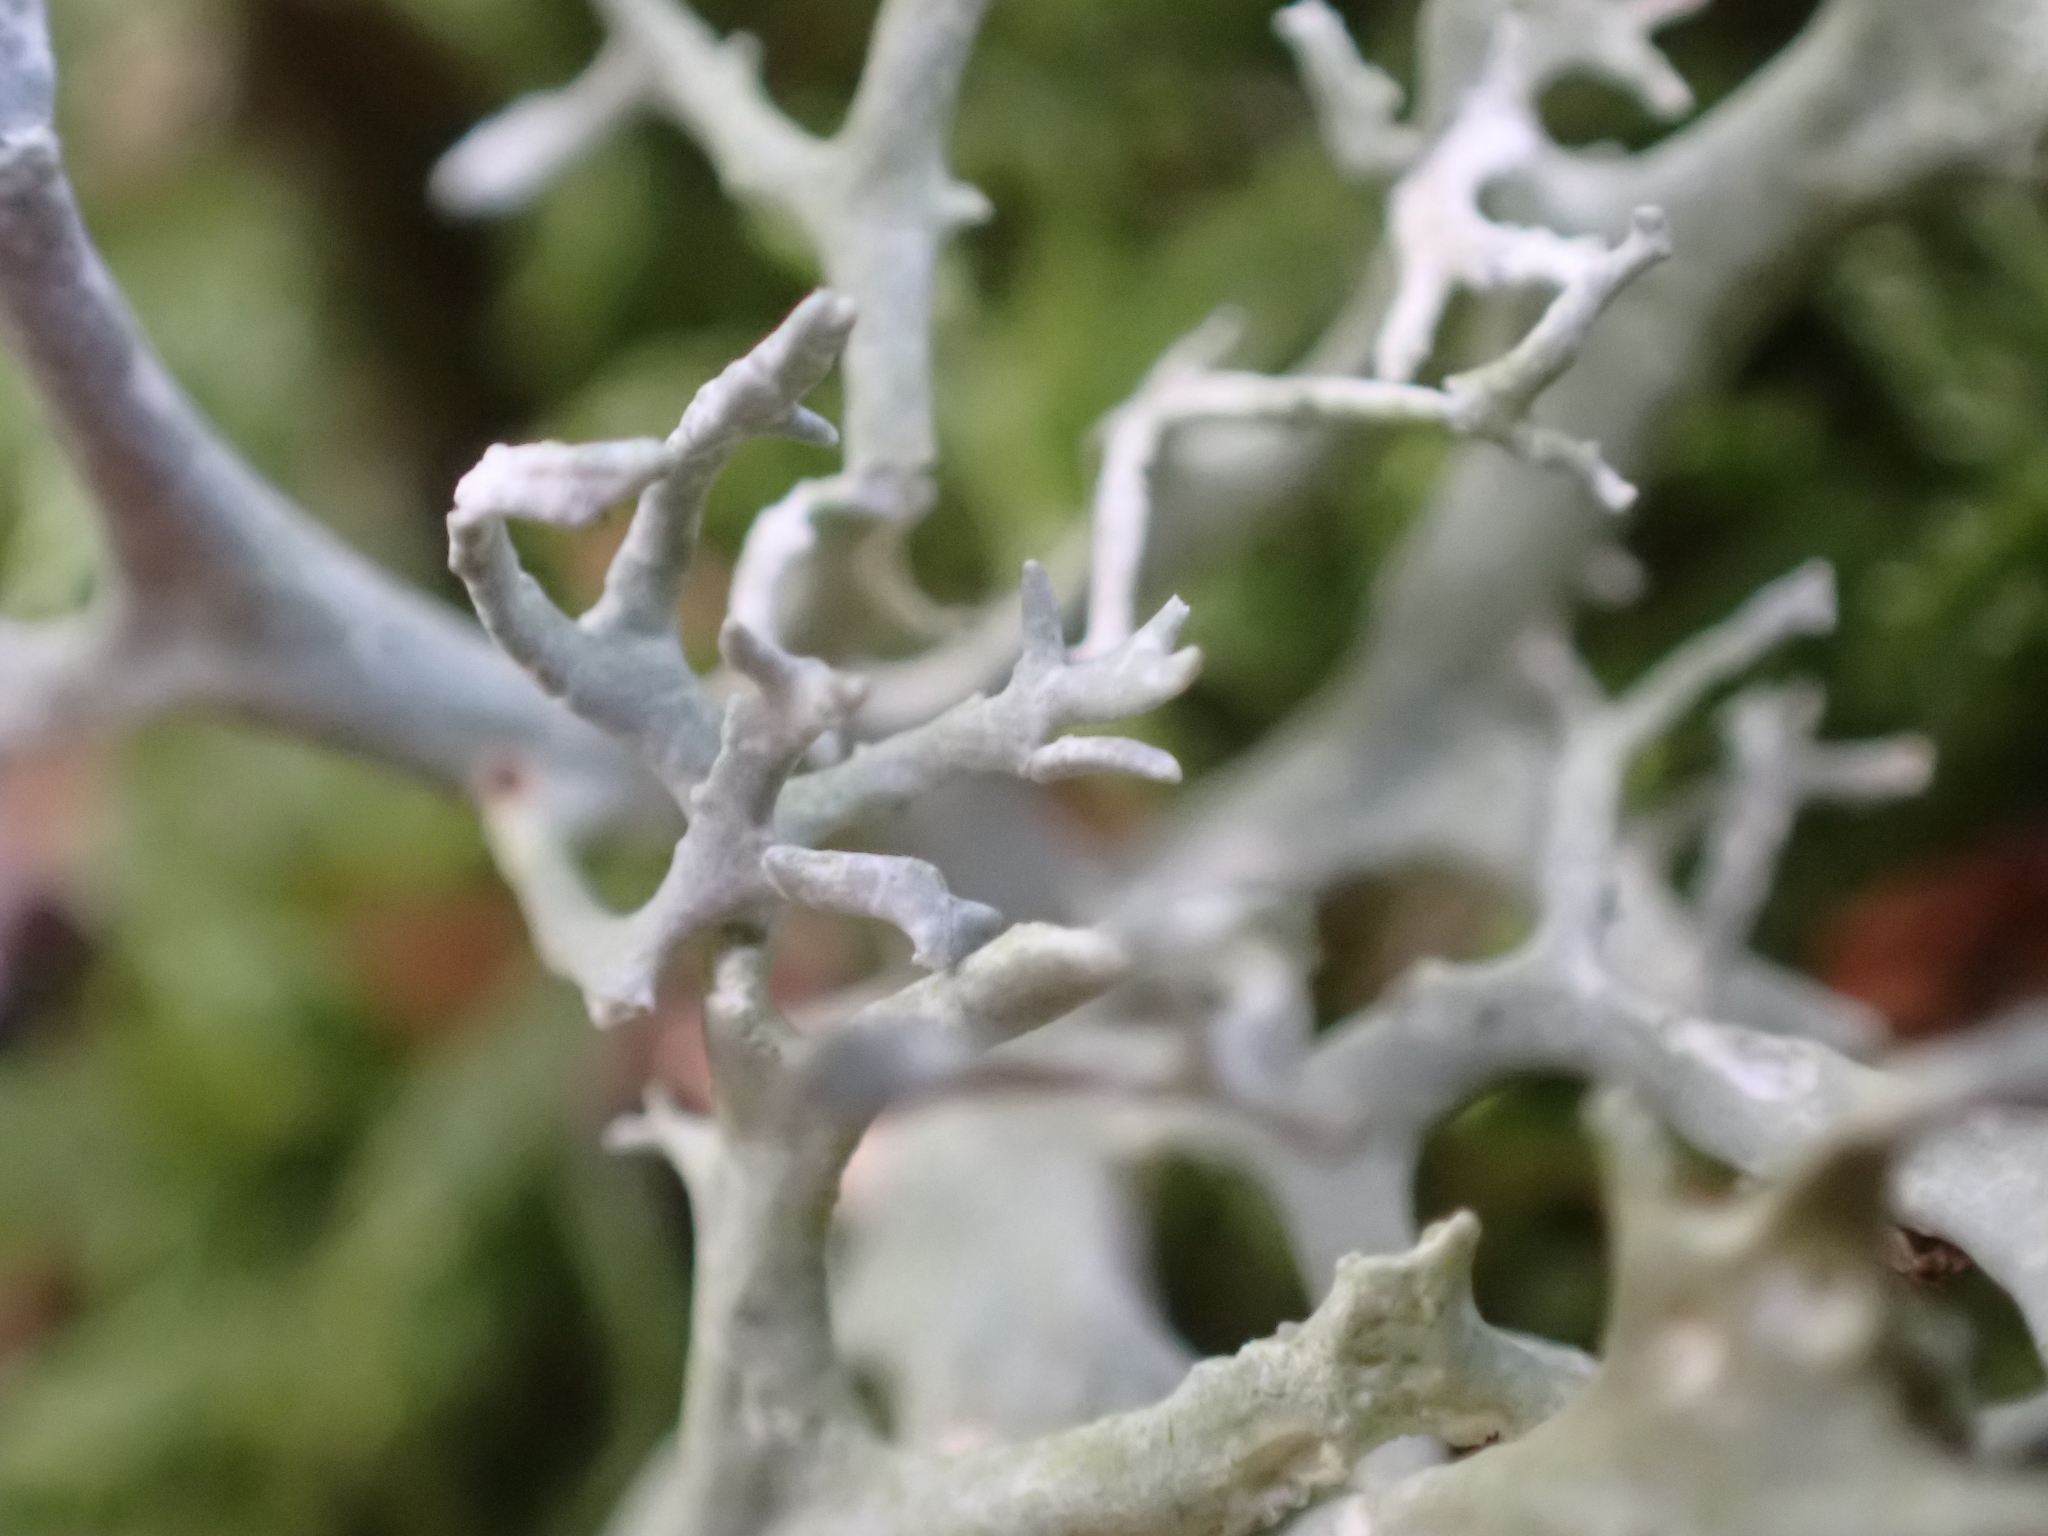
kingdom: Fungi
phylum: Ascomycota
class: Lecanoromycetes
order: Lecanorales
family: Parmeliaceae
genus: Evernia
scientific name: Evernia prunastri
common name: Oak moss
